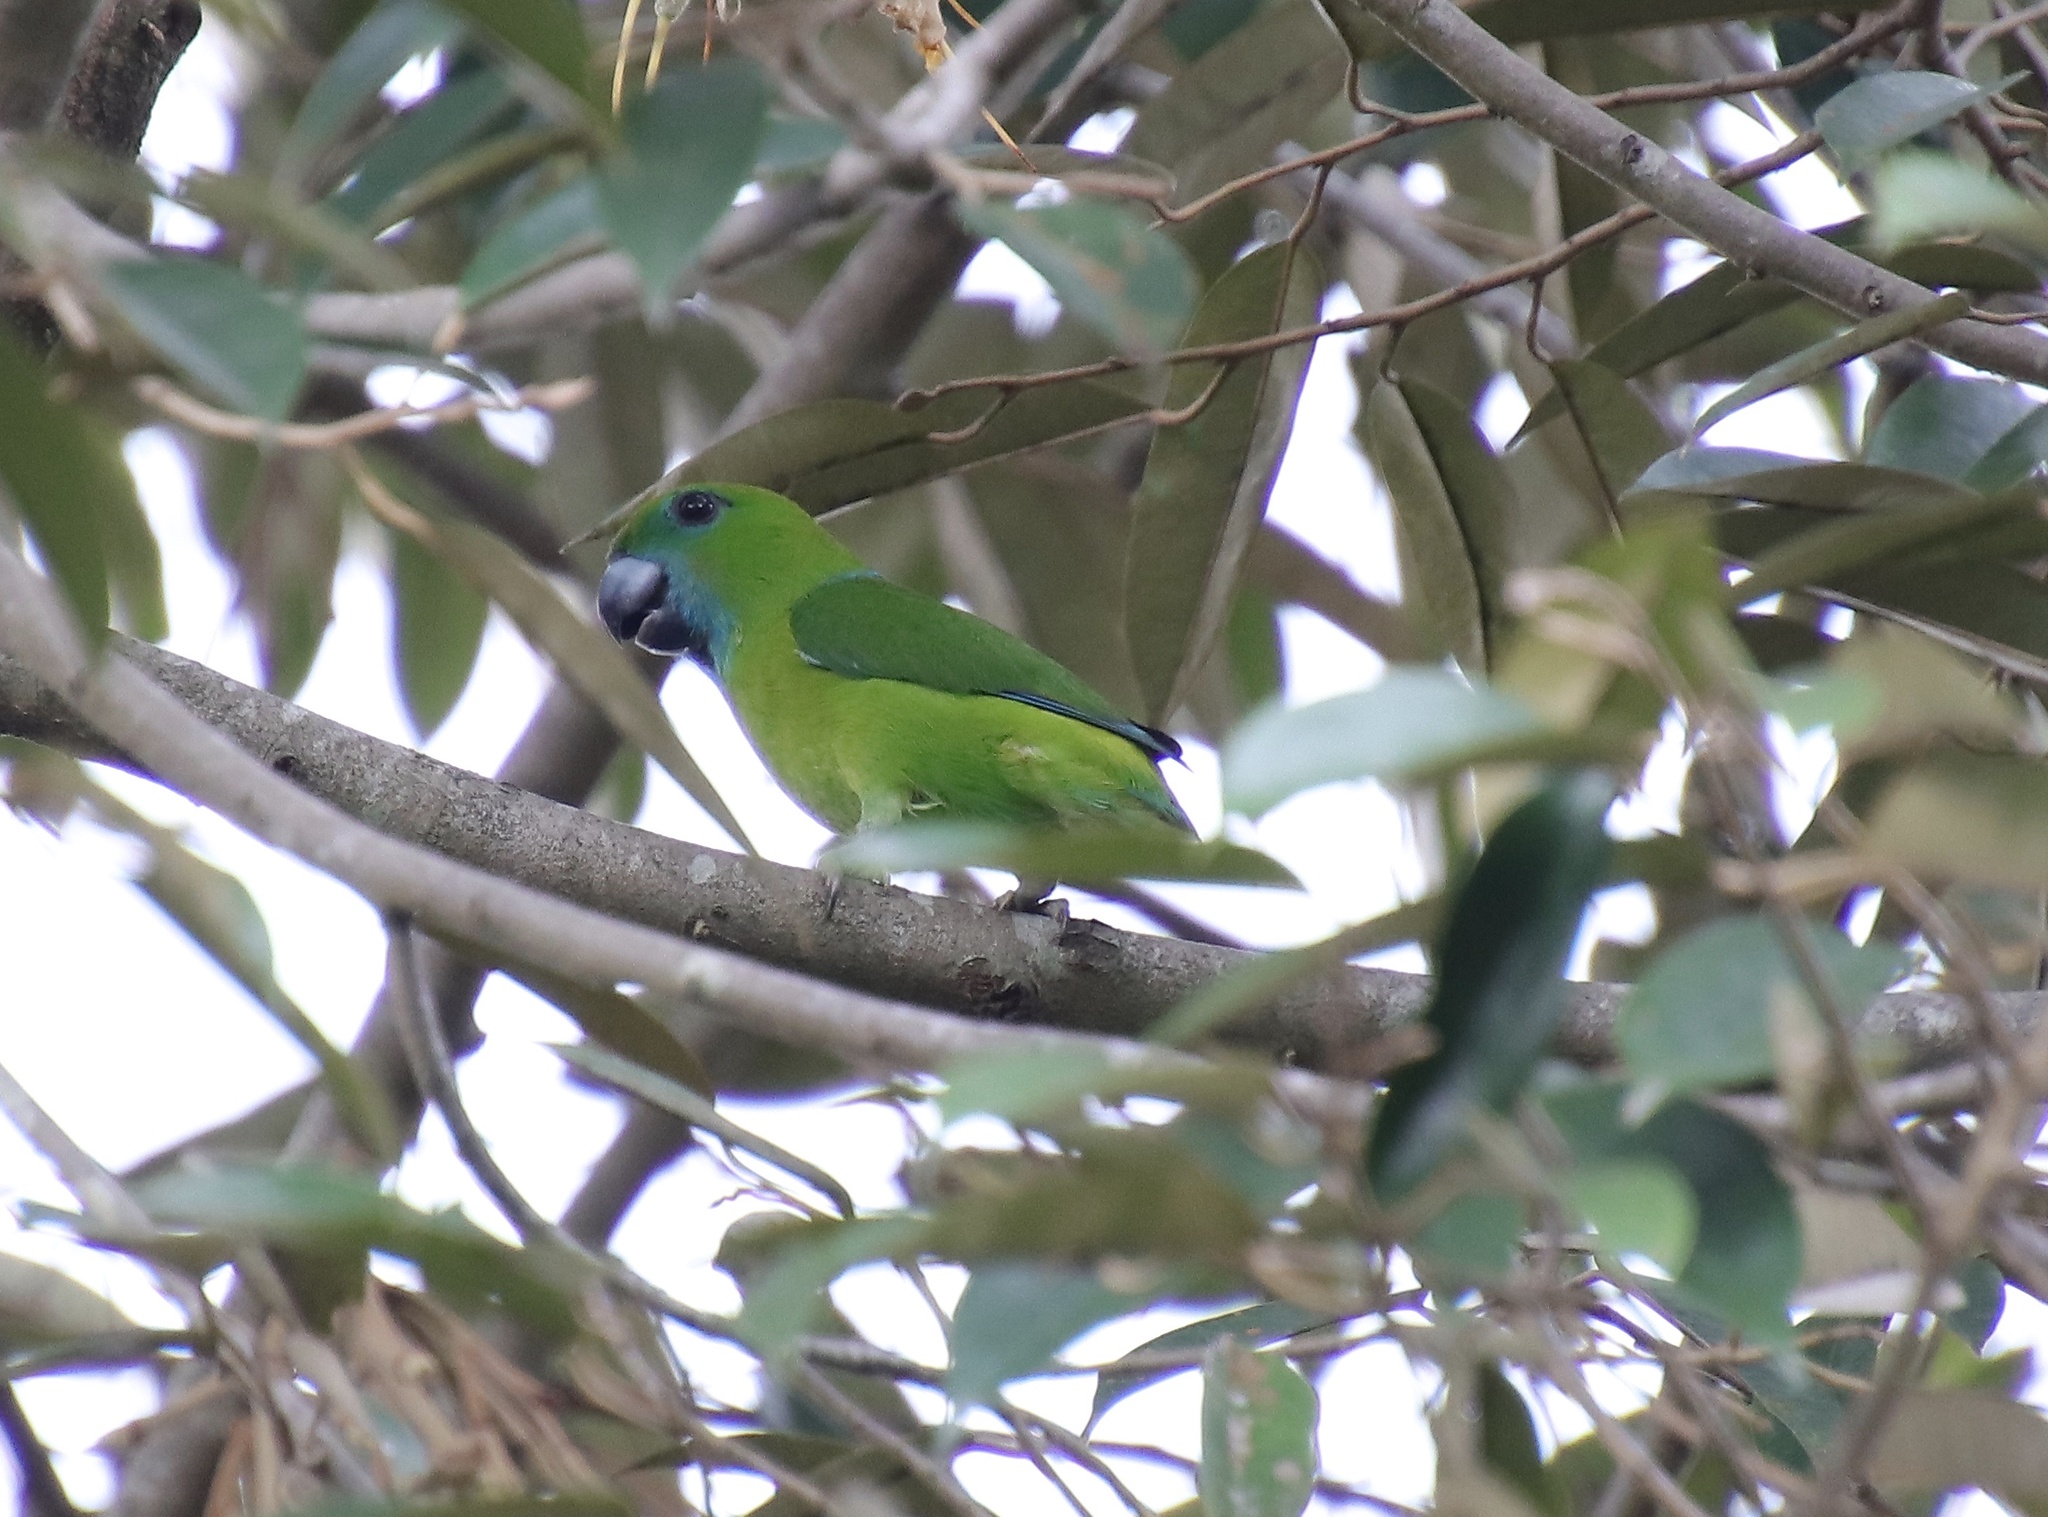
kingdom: Animalia
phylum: Chordata
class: Aves
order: Psittaciformes
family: Psittacidae
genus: Bolbopsittacus
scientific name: Bolbopsittacus lunulatus
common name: Guaiabero
